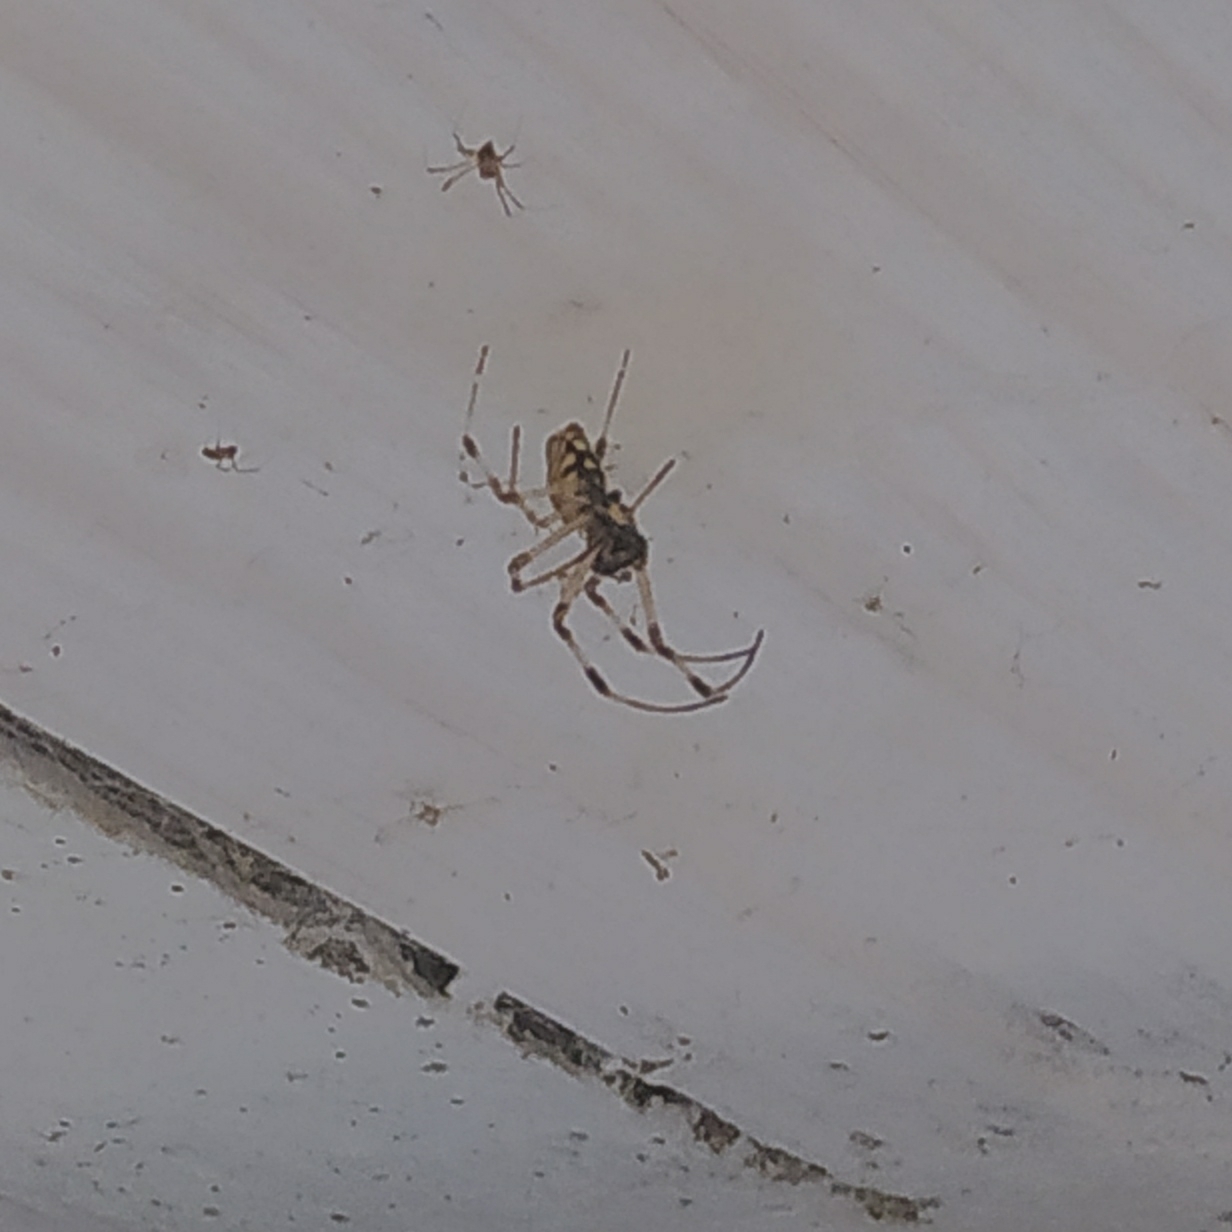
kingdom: Animalia
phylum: Arthropoda
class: Arachnida
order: Araneae
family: Araneidae
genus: Nephilingis
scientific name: Nephilingis cruentata
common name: African hermit spider
